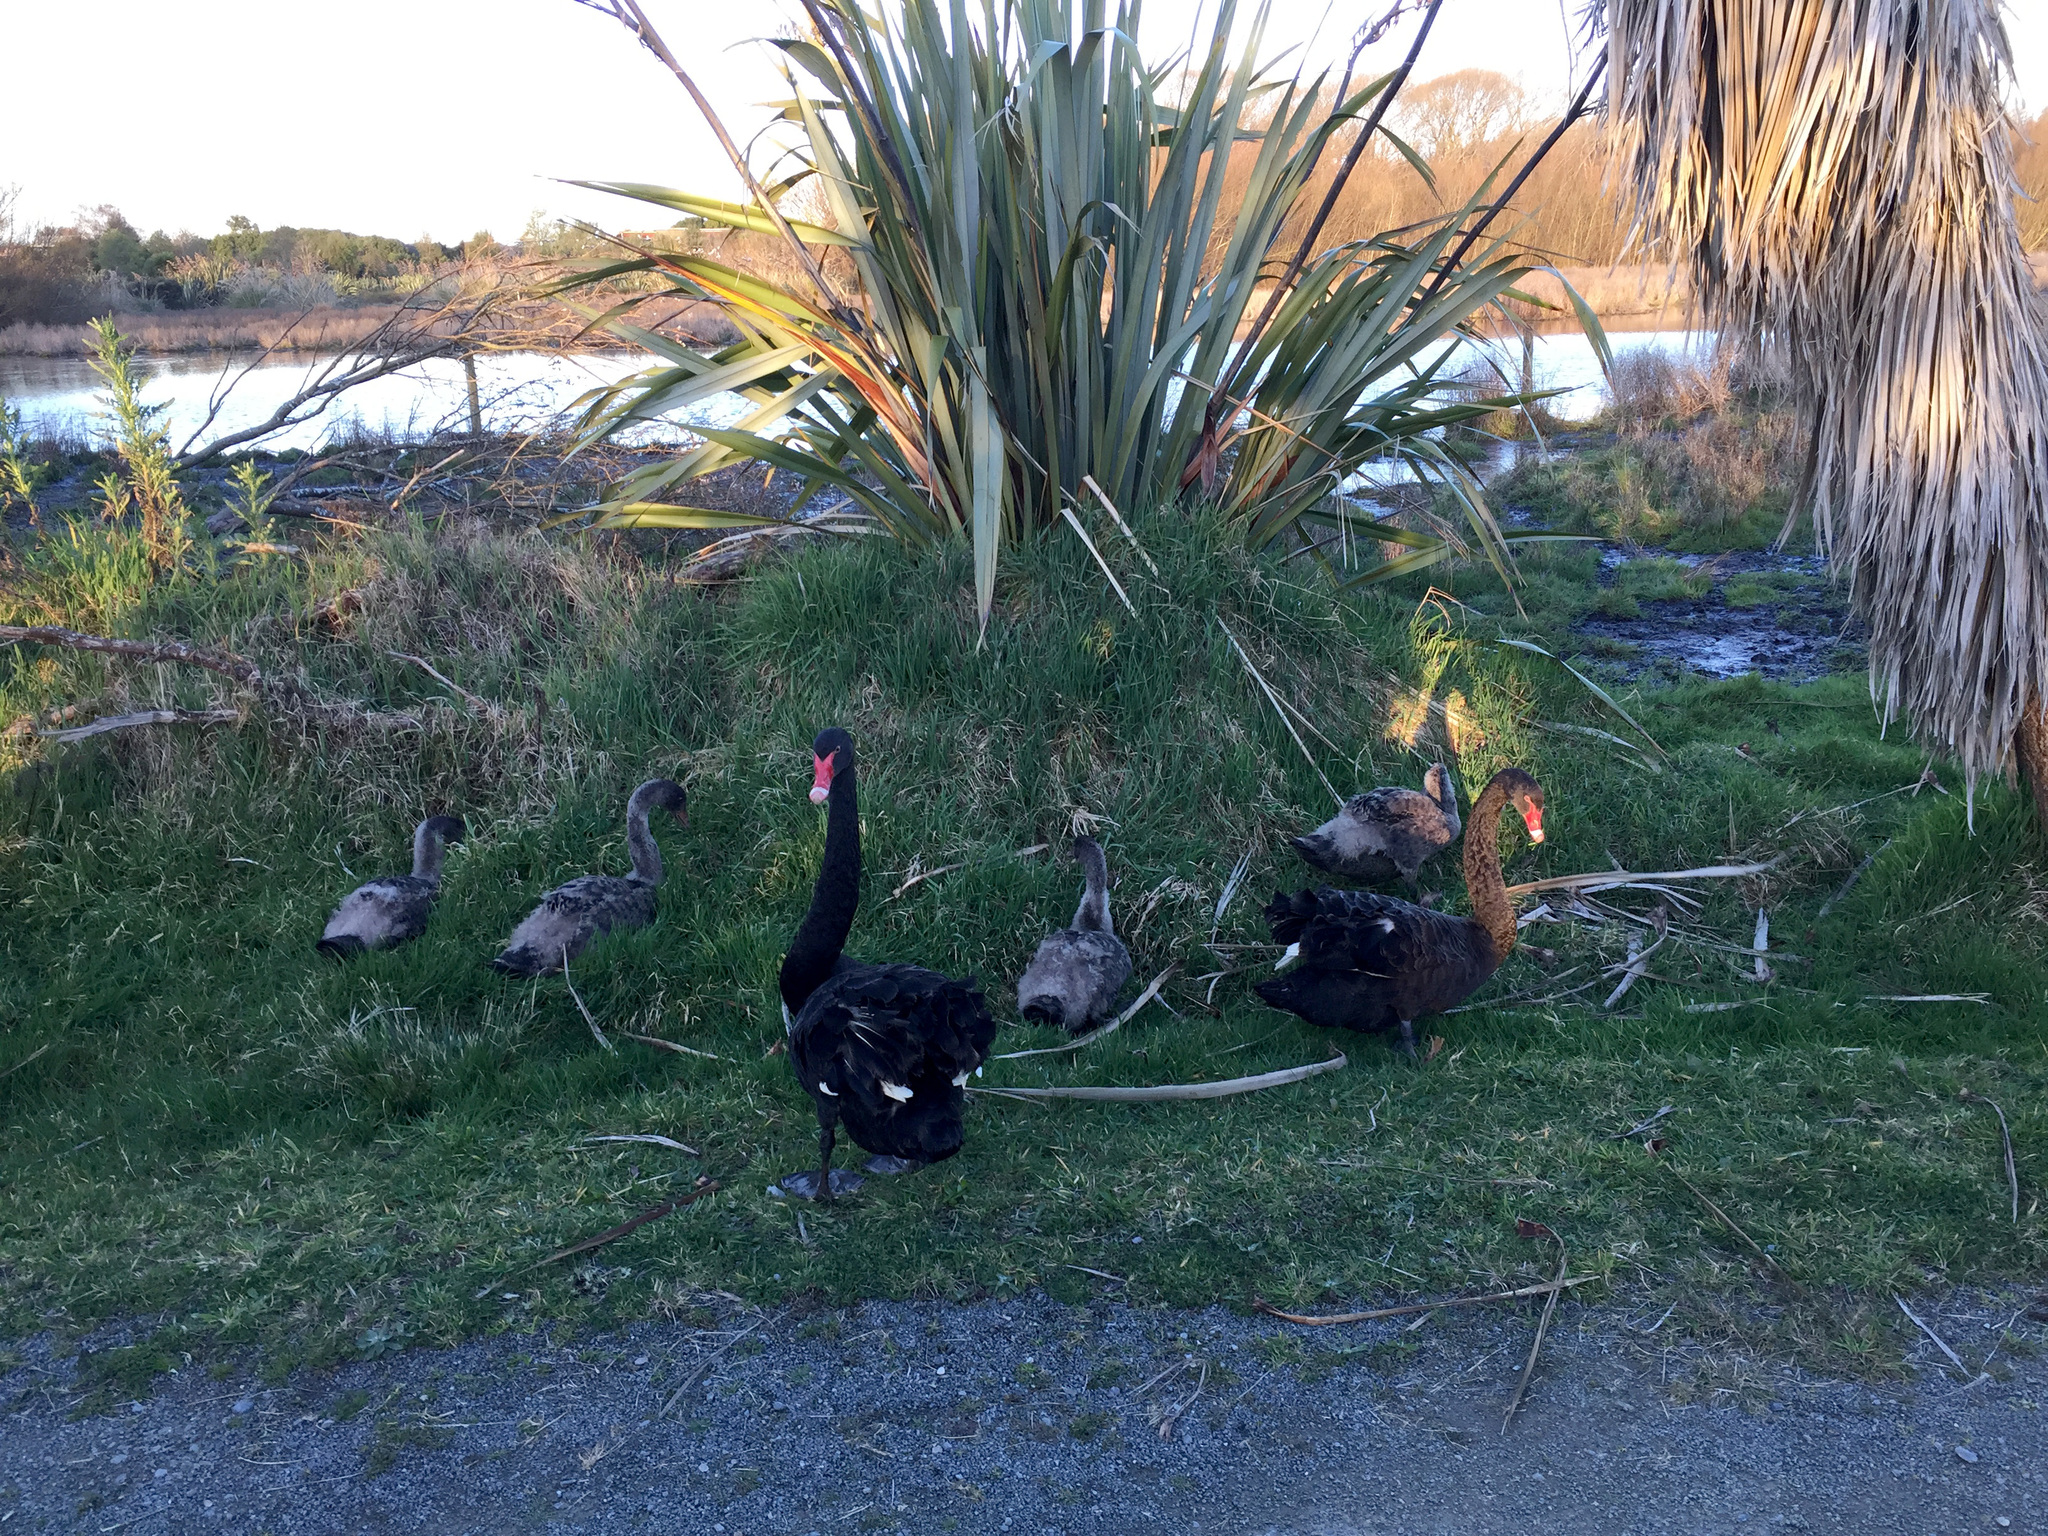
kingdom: Animalia
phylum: Chordata
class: Aves
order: Anseriformes
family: Anatidae
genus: Cygnus
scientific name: Cygnus atratus
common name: Black swan
